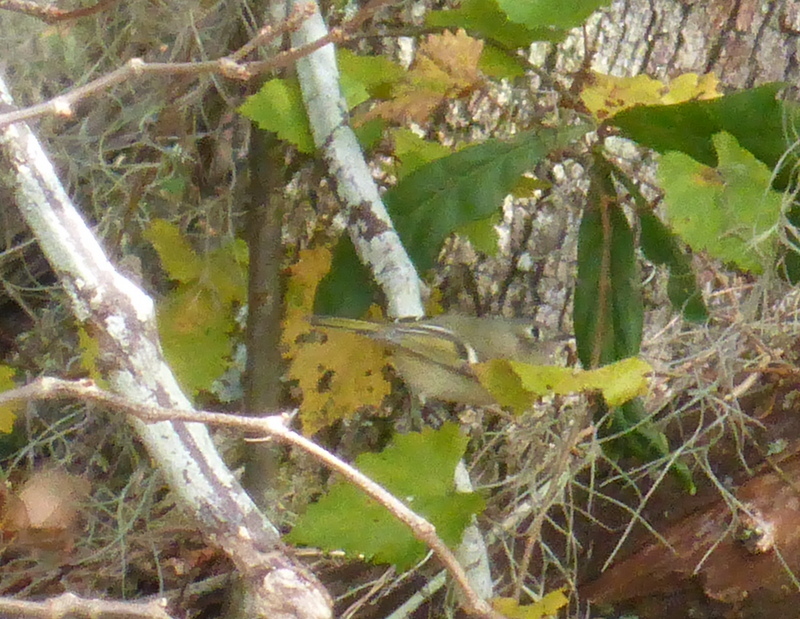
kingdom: Animalia
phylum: Chordata
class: Aves
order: Passeriformes
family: Regulidae
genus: Regulus
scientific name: Regulus calendula
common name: Ruby-crowned kinglet
